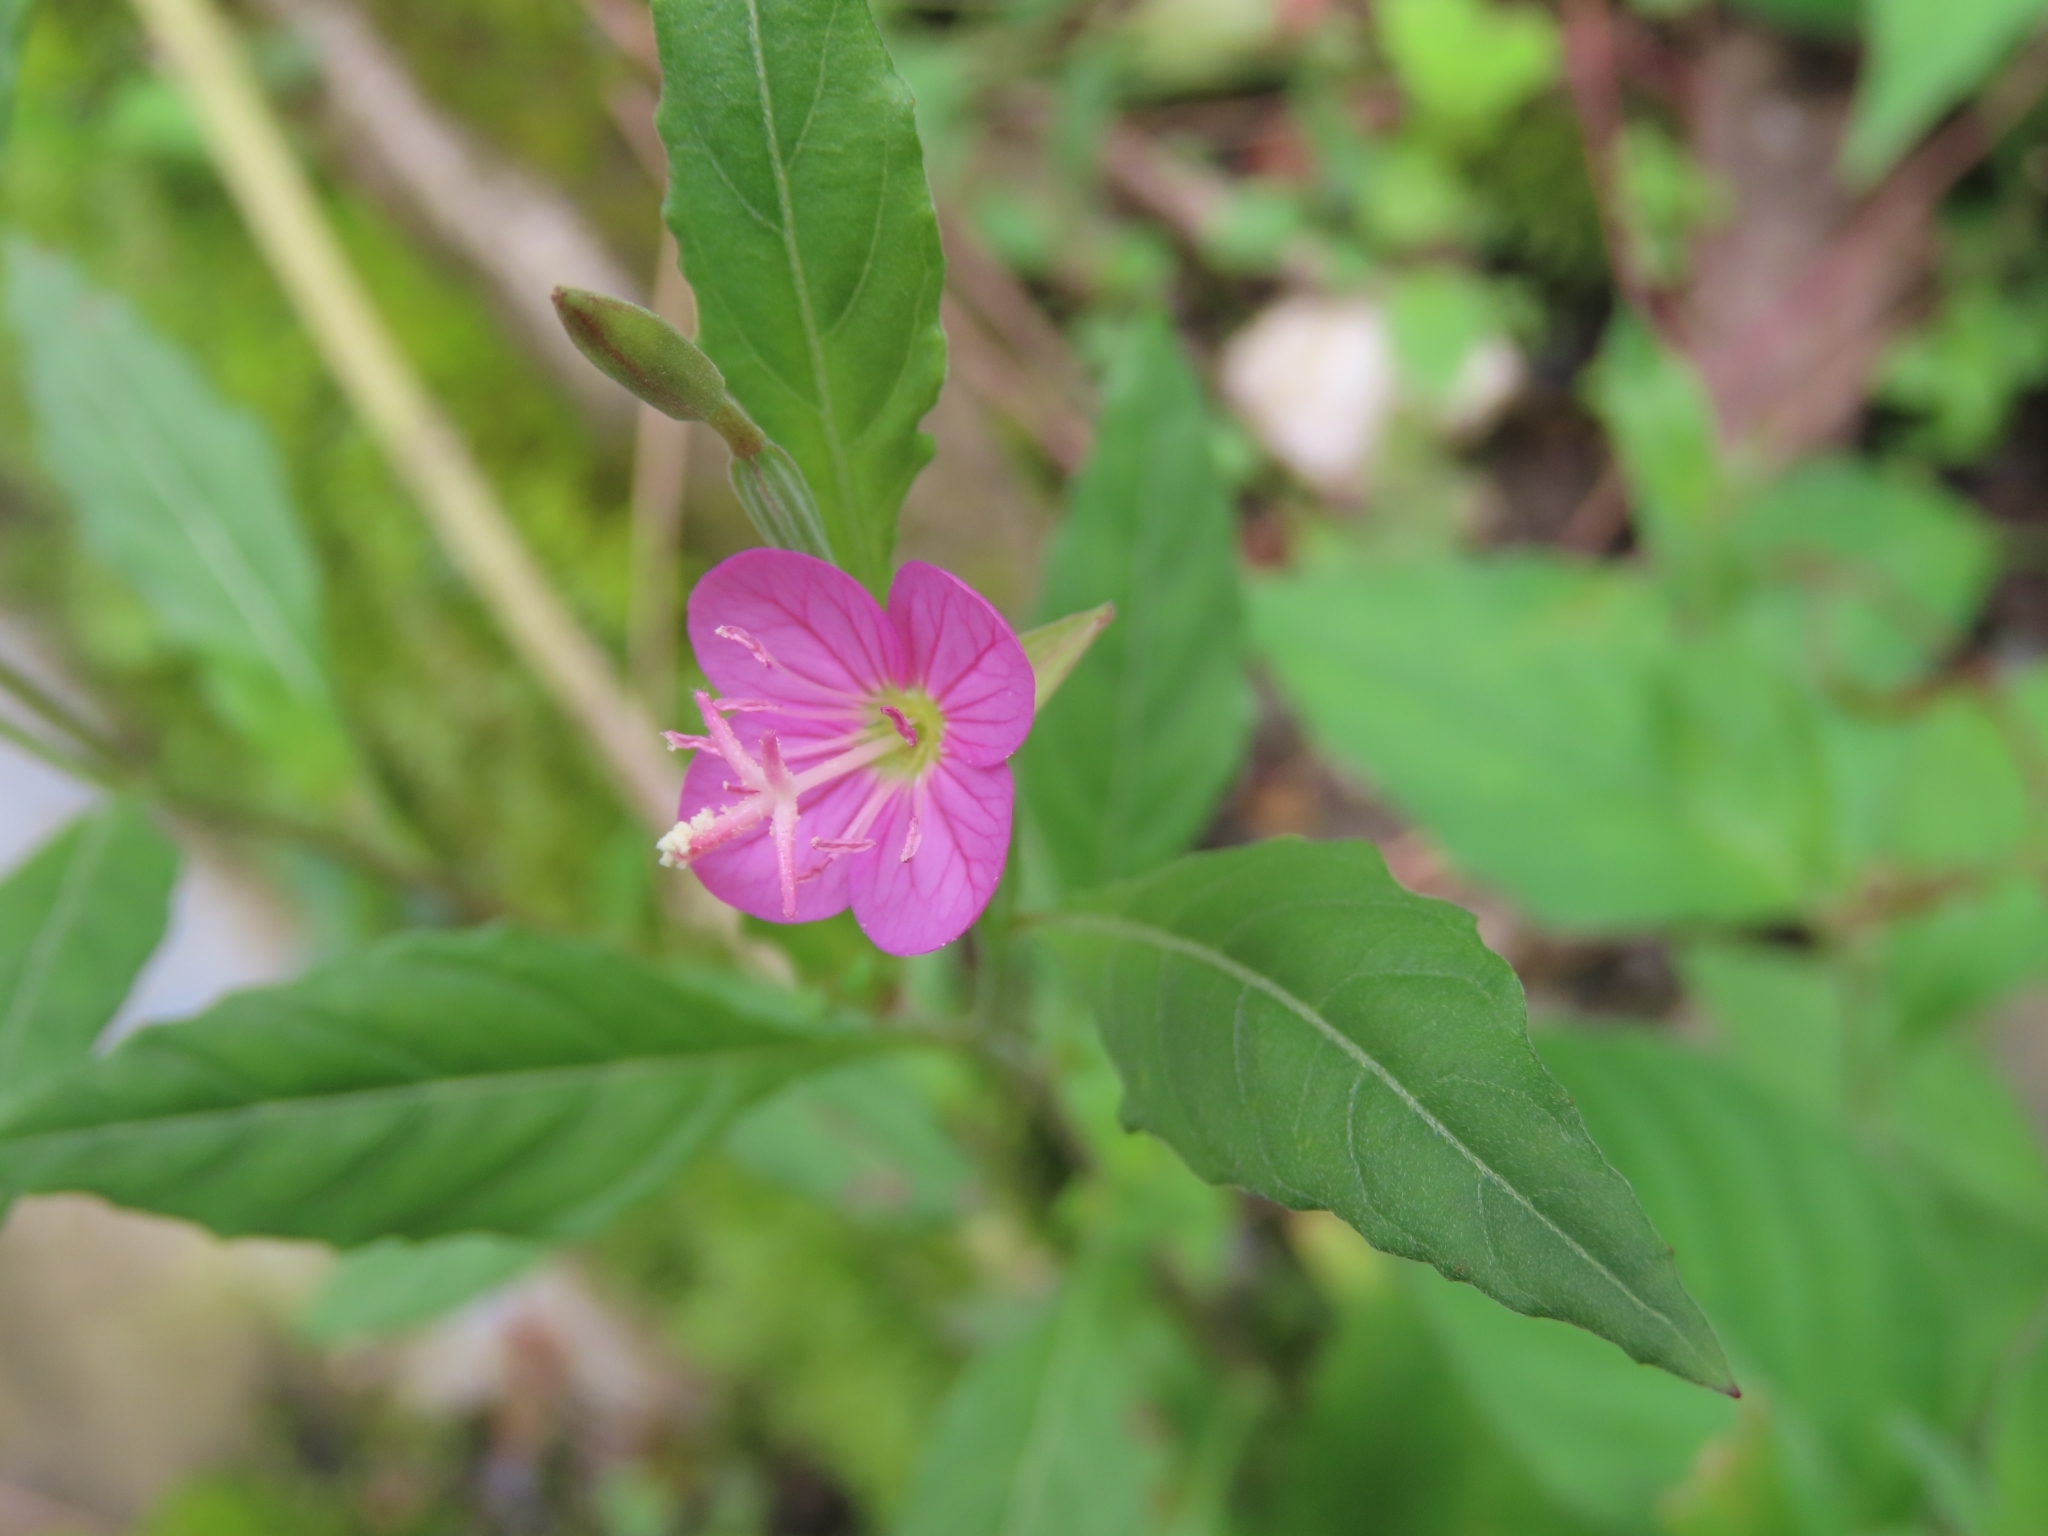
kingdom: Plantae
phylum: Tracheophyta
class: Magnoliopsida
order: Myrtales
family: Onagraceae
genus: Oenothera
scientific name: Oenothera rosea
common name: Rosy evening-primrose
